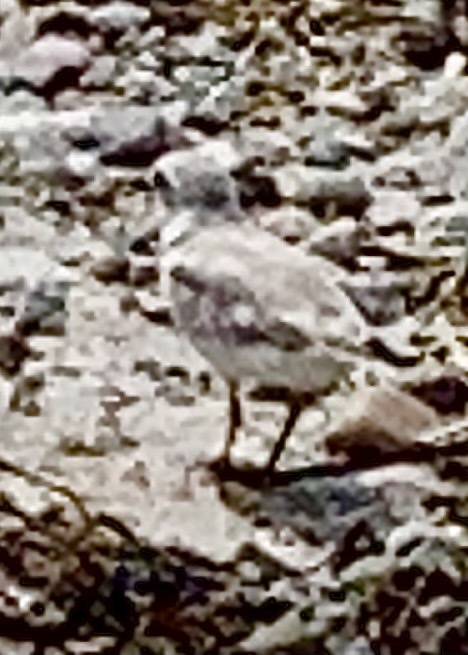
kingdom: Animalia
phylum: Chordata
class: Aves
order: Charadriiformes
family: Charadriidae
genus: Charadrius
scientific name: Charadrius melodus
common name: Piping plover
